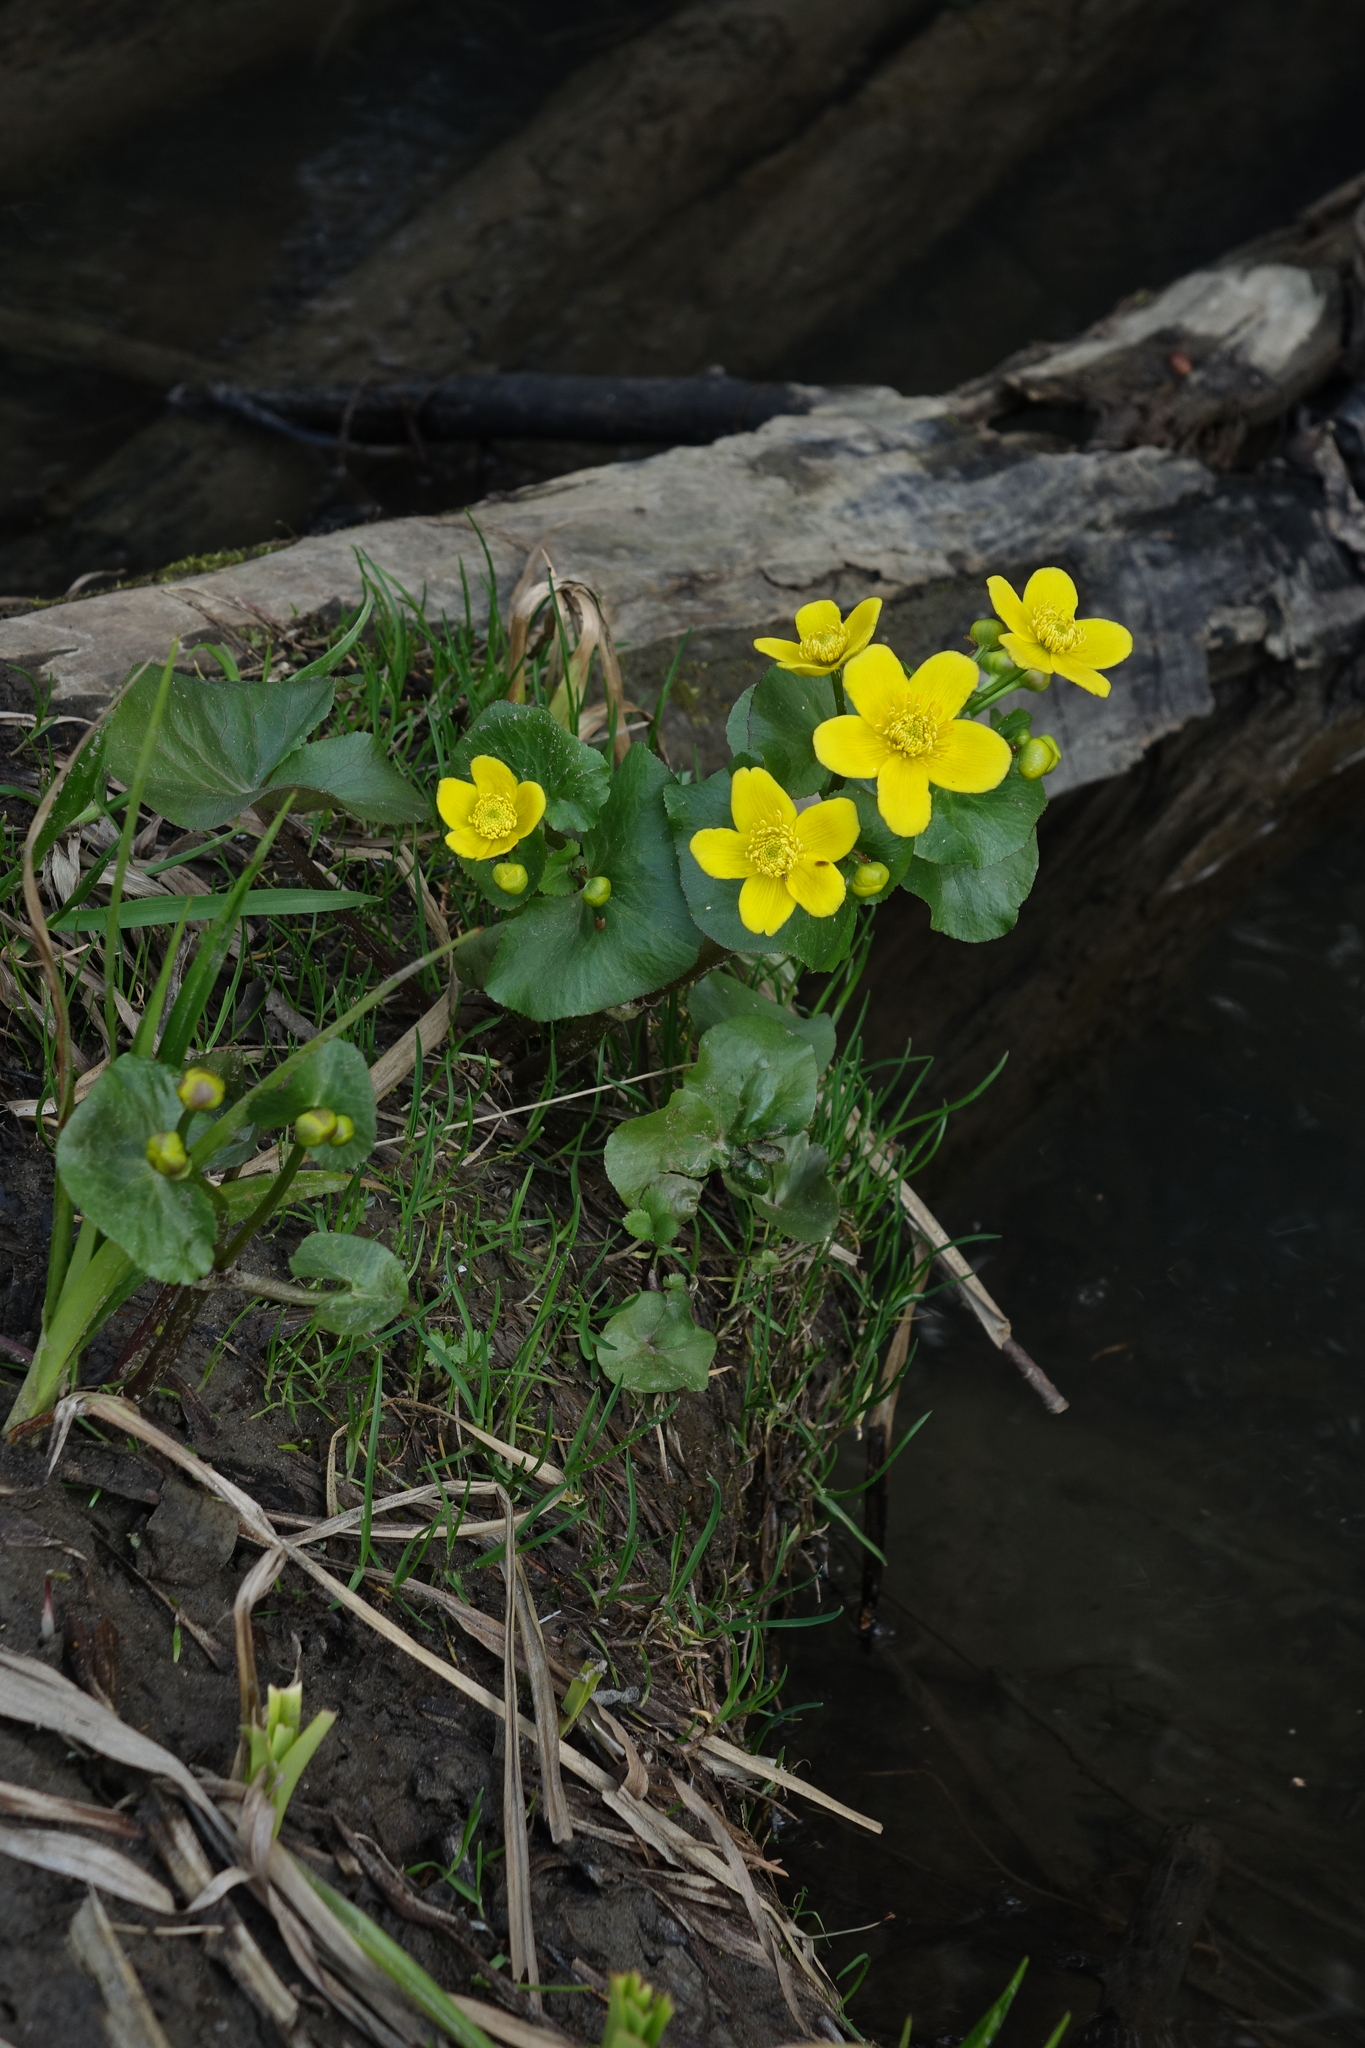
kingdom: Plantae
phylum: Tracheophyta
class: Magnoliopsida
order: Ranunculales
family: Ranunculaceae
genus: Caltha
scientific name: Caltha palustris
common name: Marsh marigold
